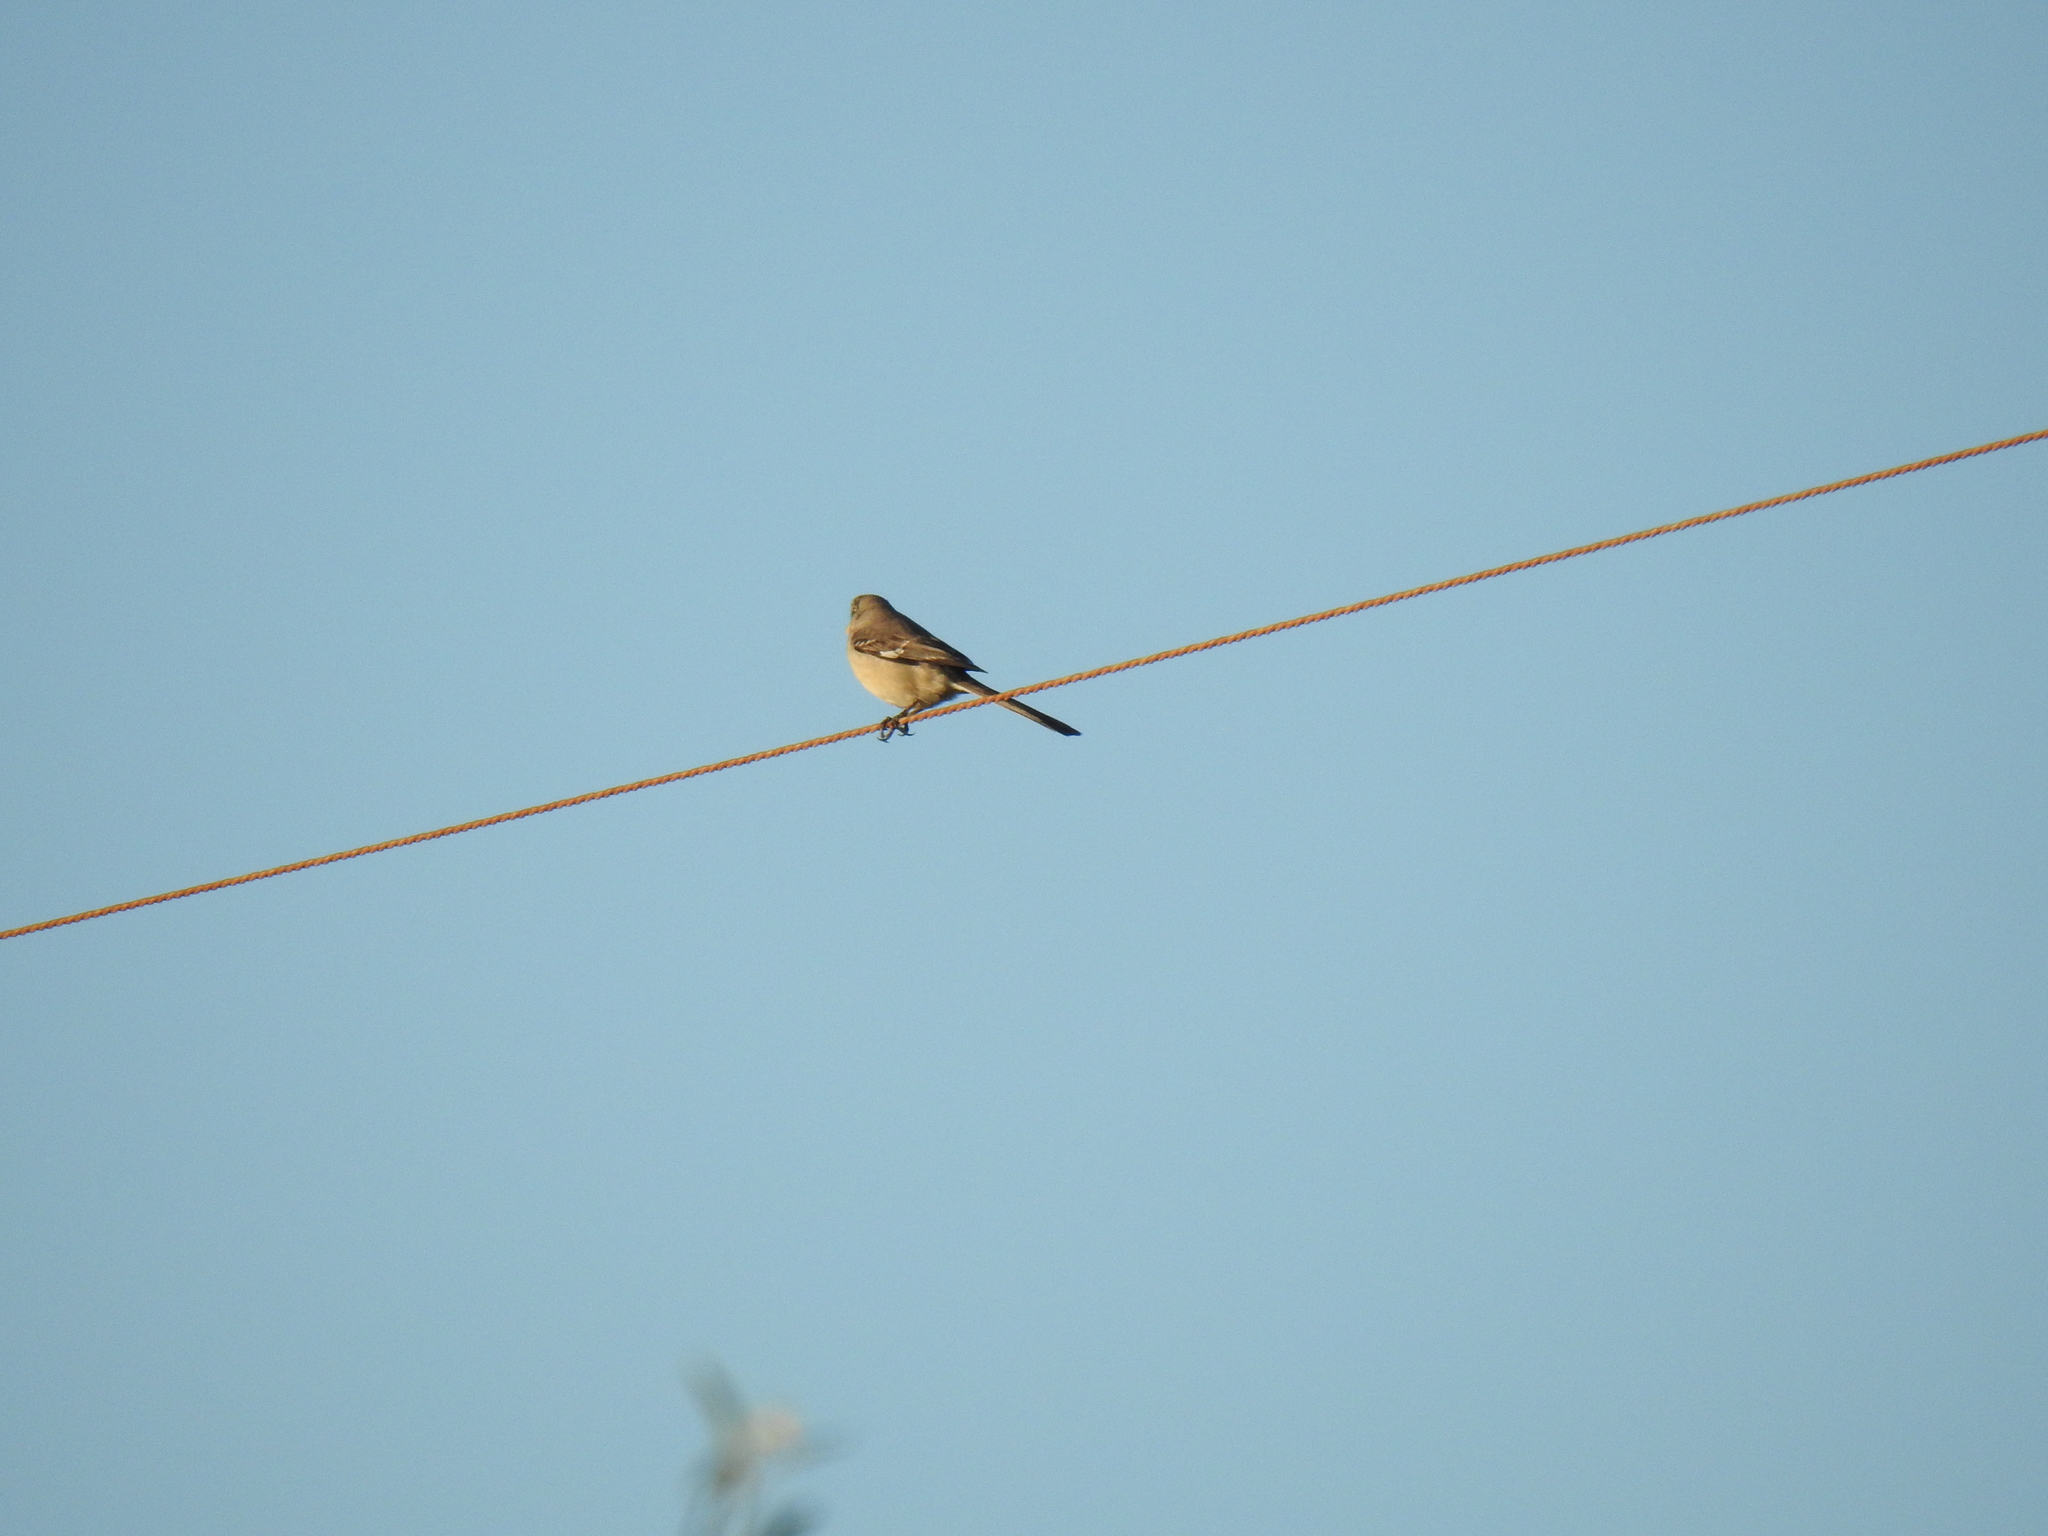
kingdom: Animalia
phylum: Chordata
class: Aves
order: Passeriformes
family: Mimidae
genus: Mimus
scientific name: Mimus polyglottos
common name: Northern mockingbird
